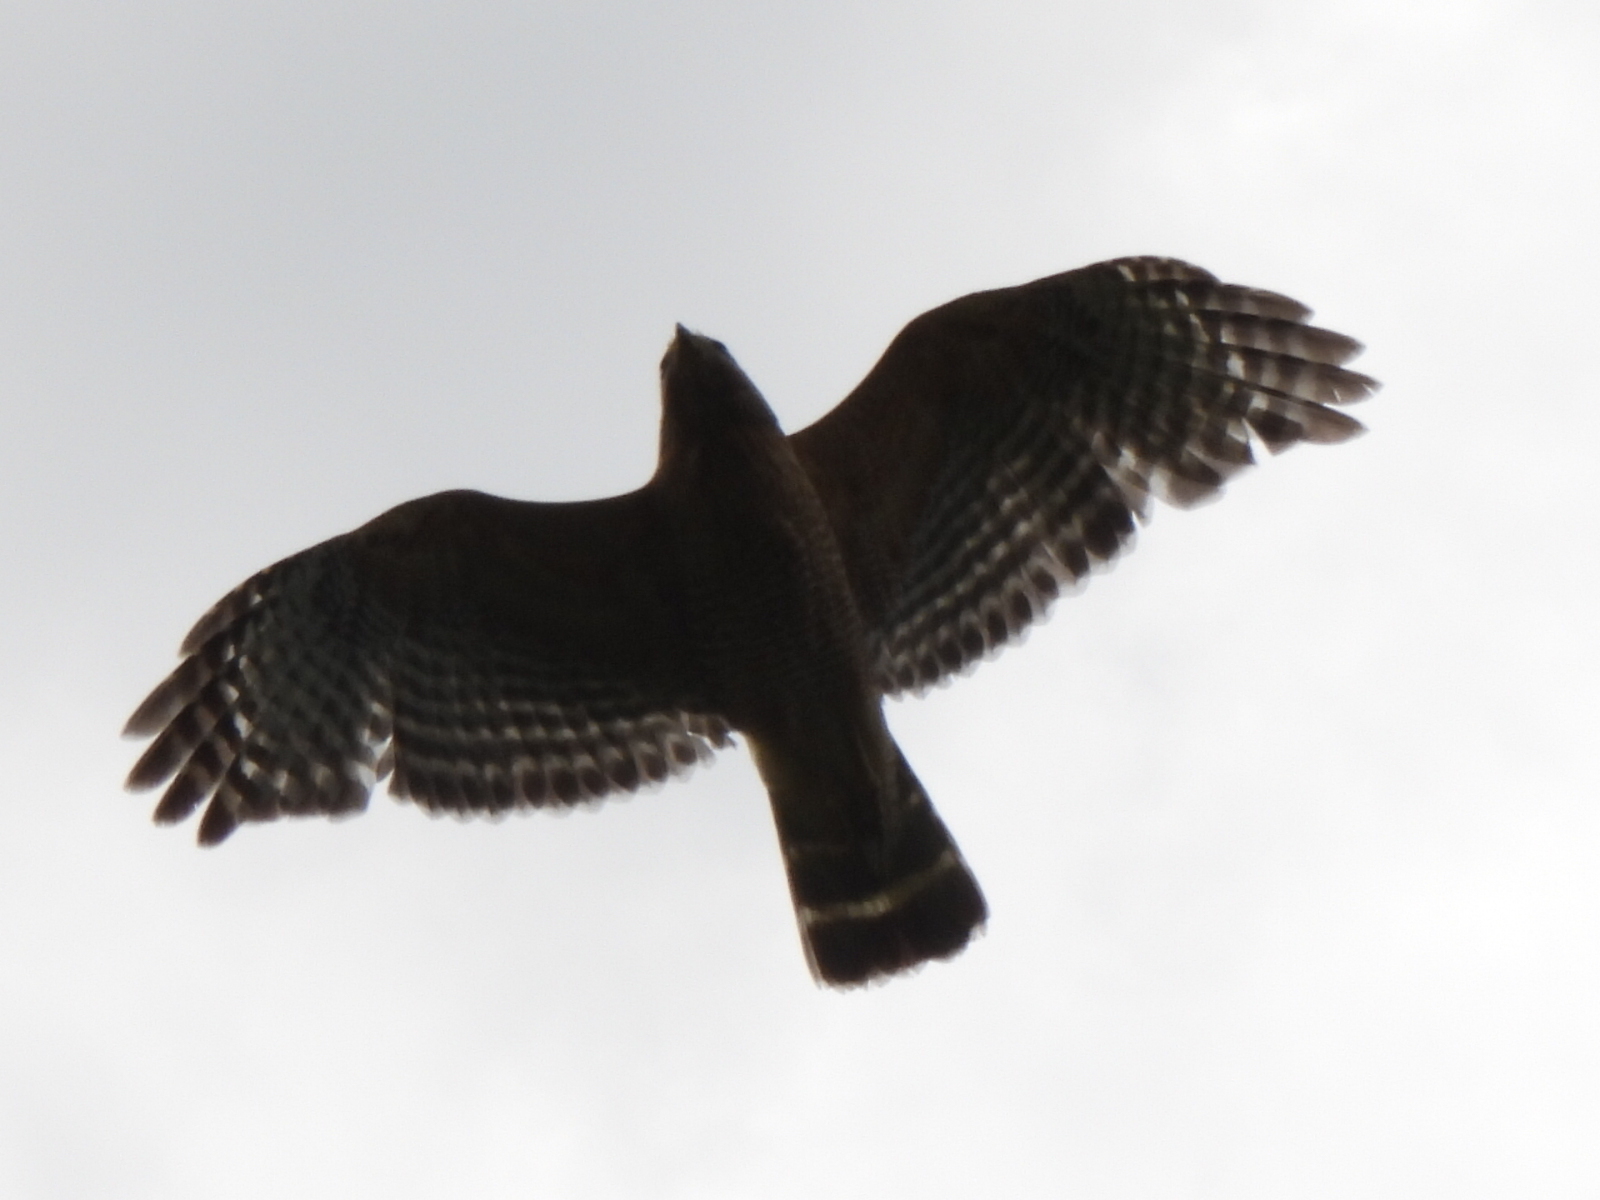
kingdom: Animalia
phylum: Chordata
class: Aves
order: Accipitriformes
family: Accipitridae
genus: Buteo
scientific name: Buteo lineatus
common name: Red-shouldered hawk
